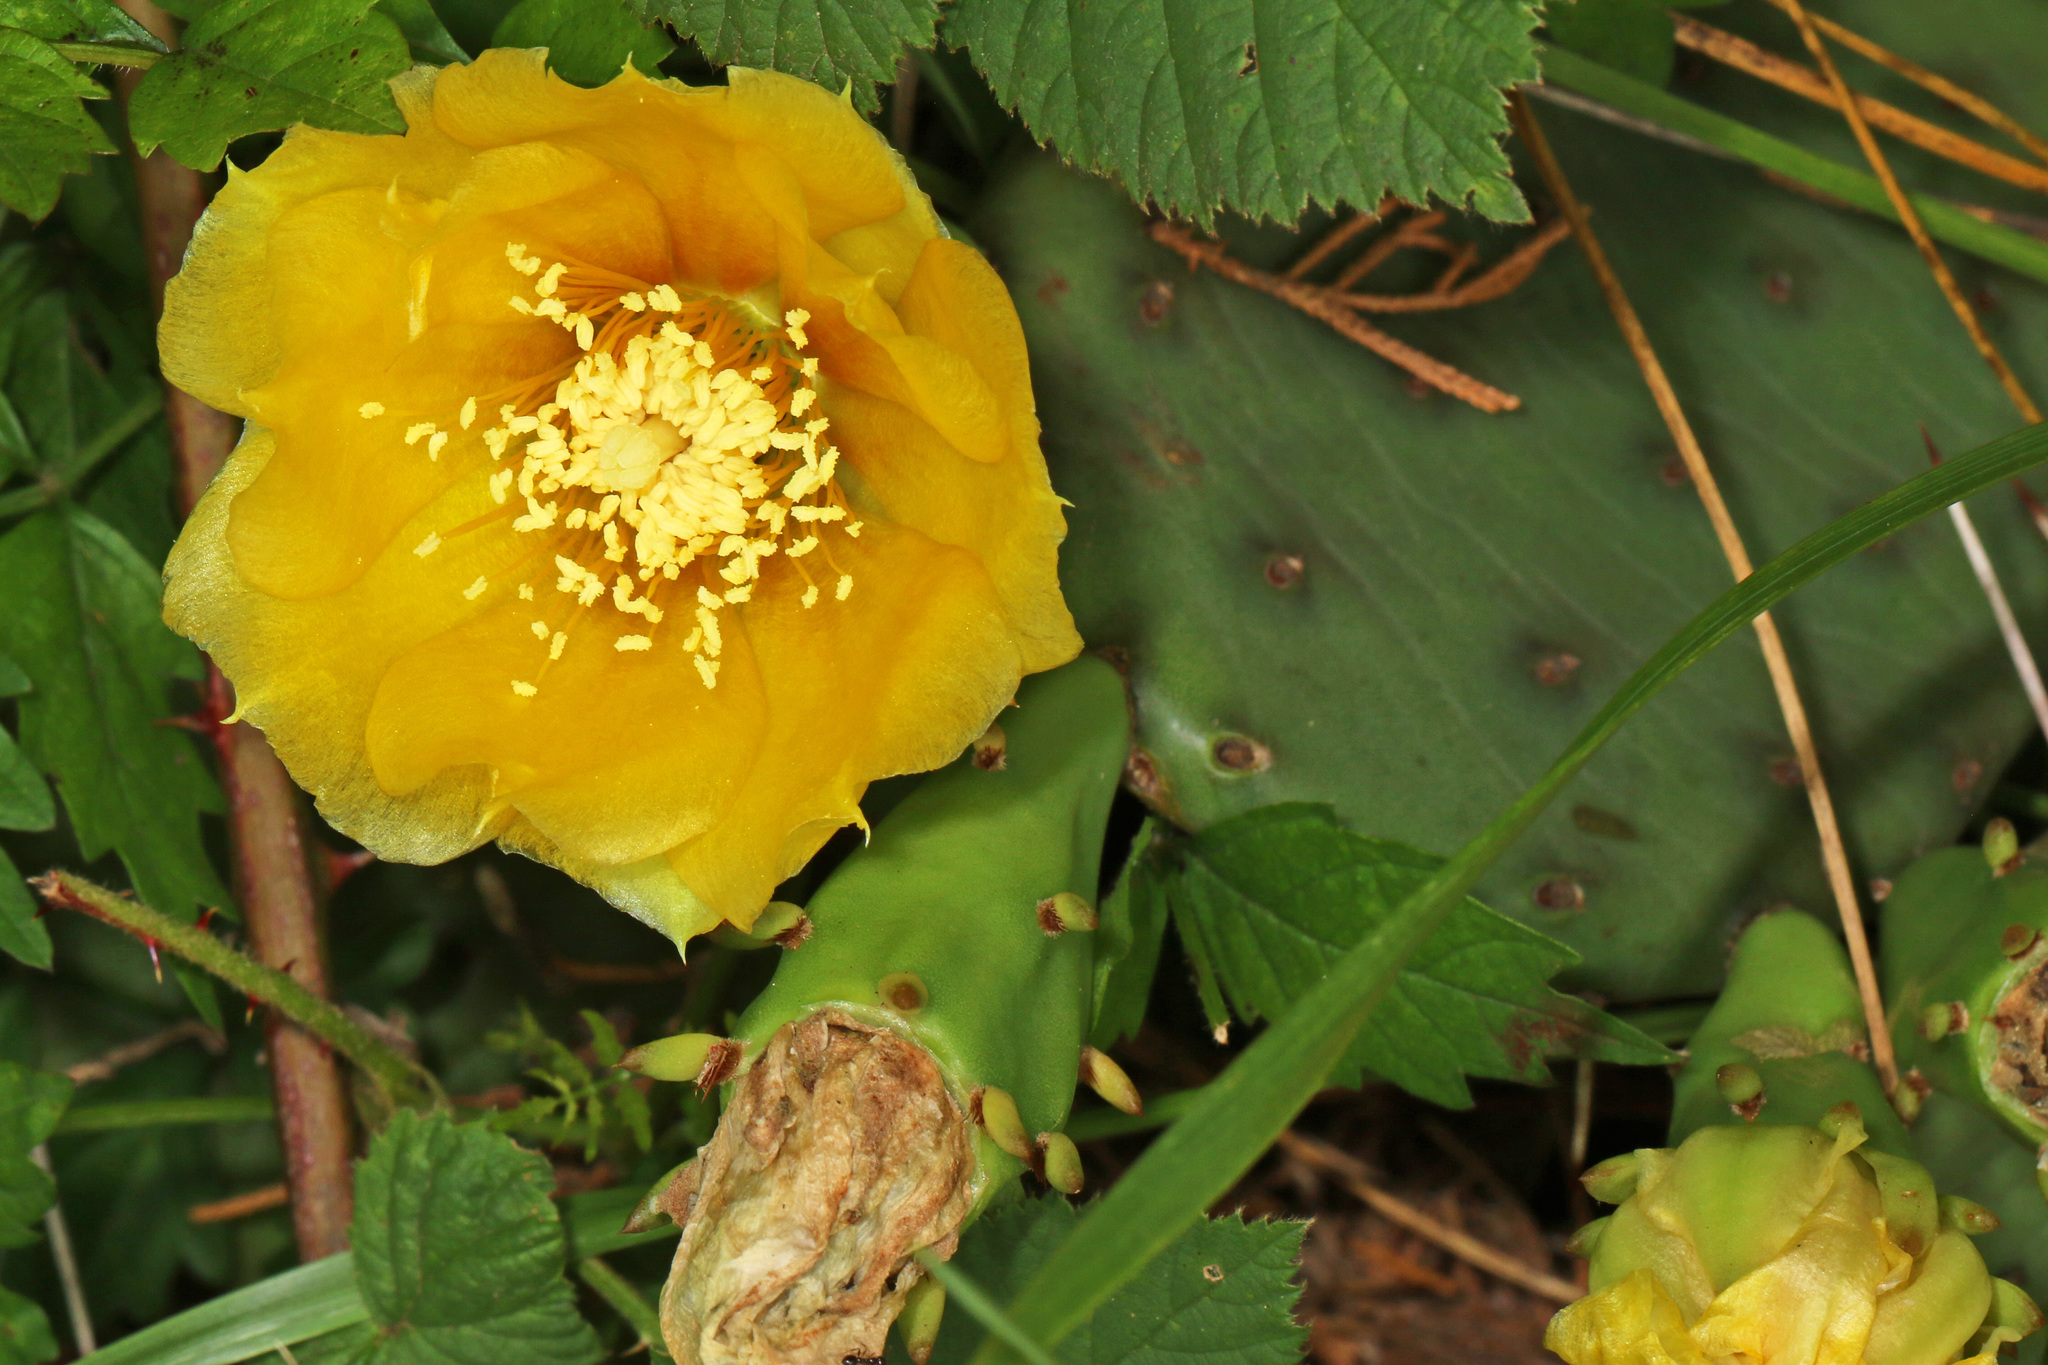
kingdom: Plantae
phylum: Tracheophyta
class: Magnoliopsida
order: Caryophyllales
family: Cactaceae
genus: Opuntia
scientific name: Opuntia humifusa
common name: Eastern prickly-pear
